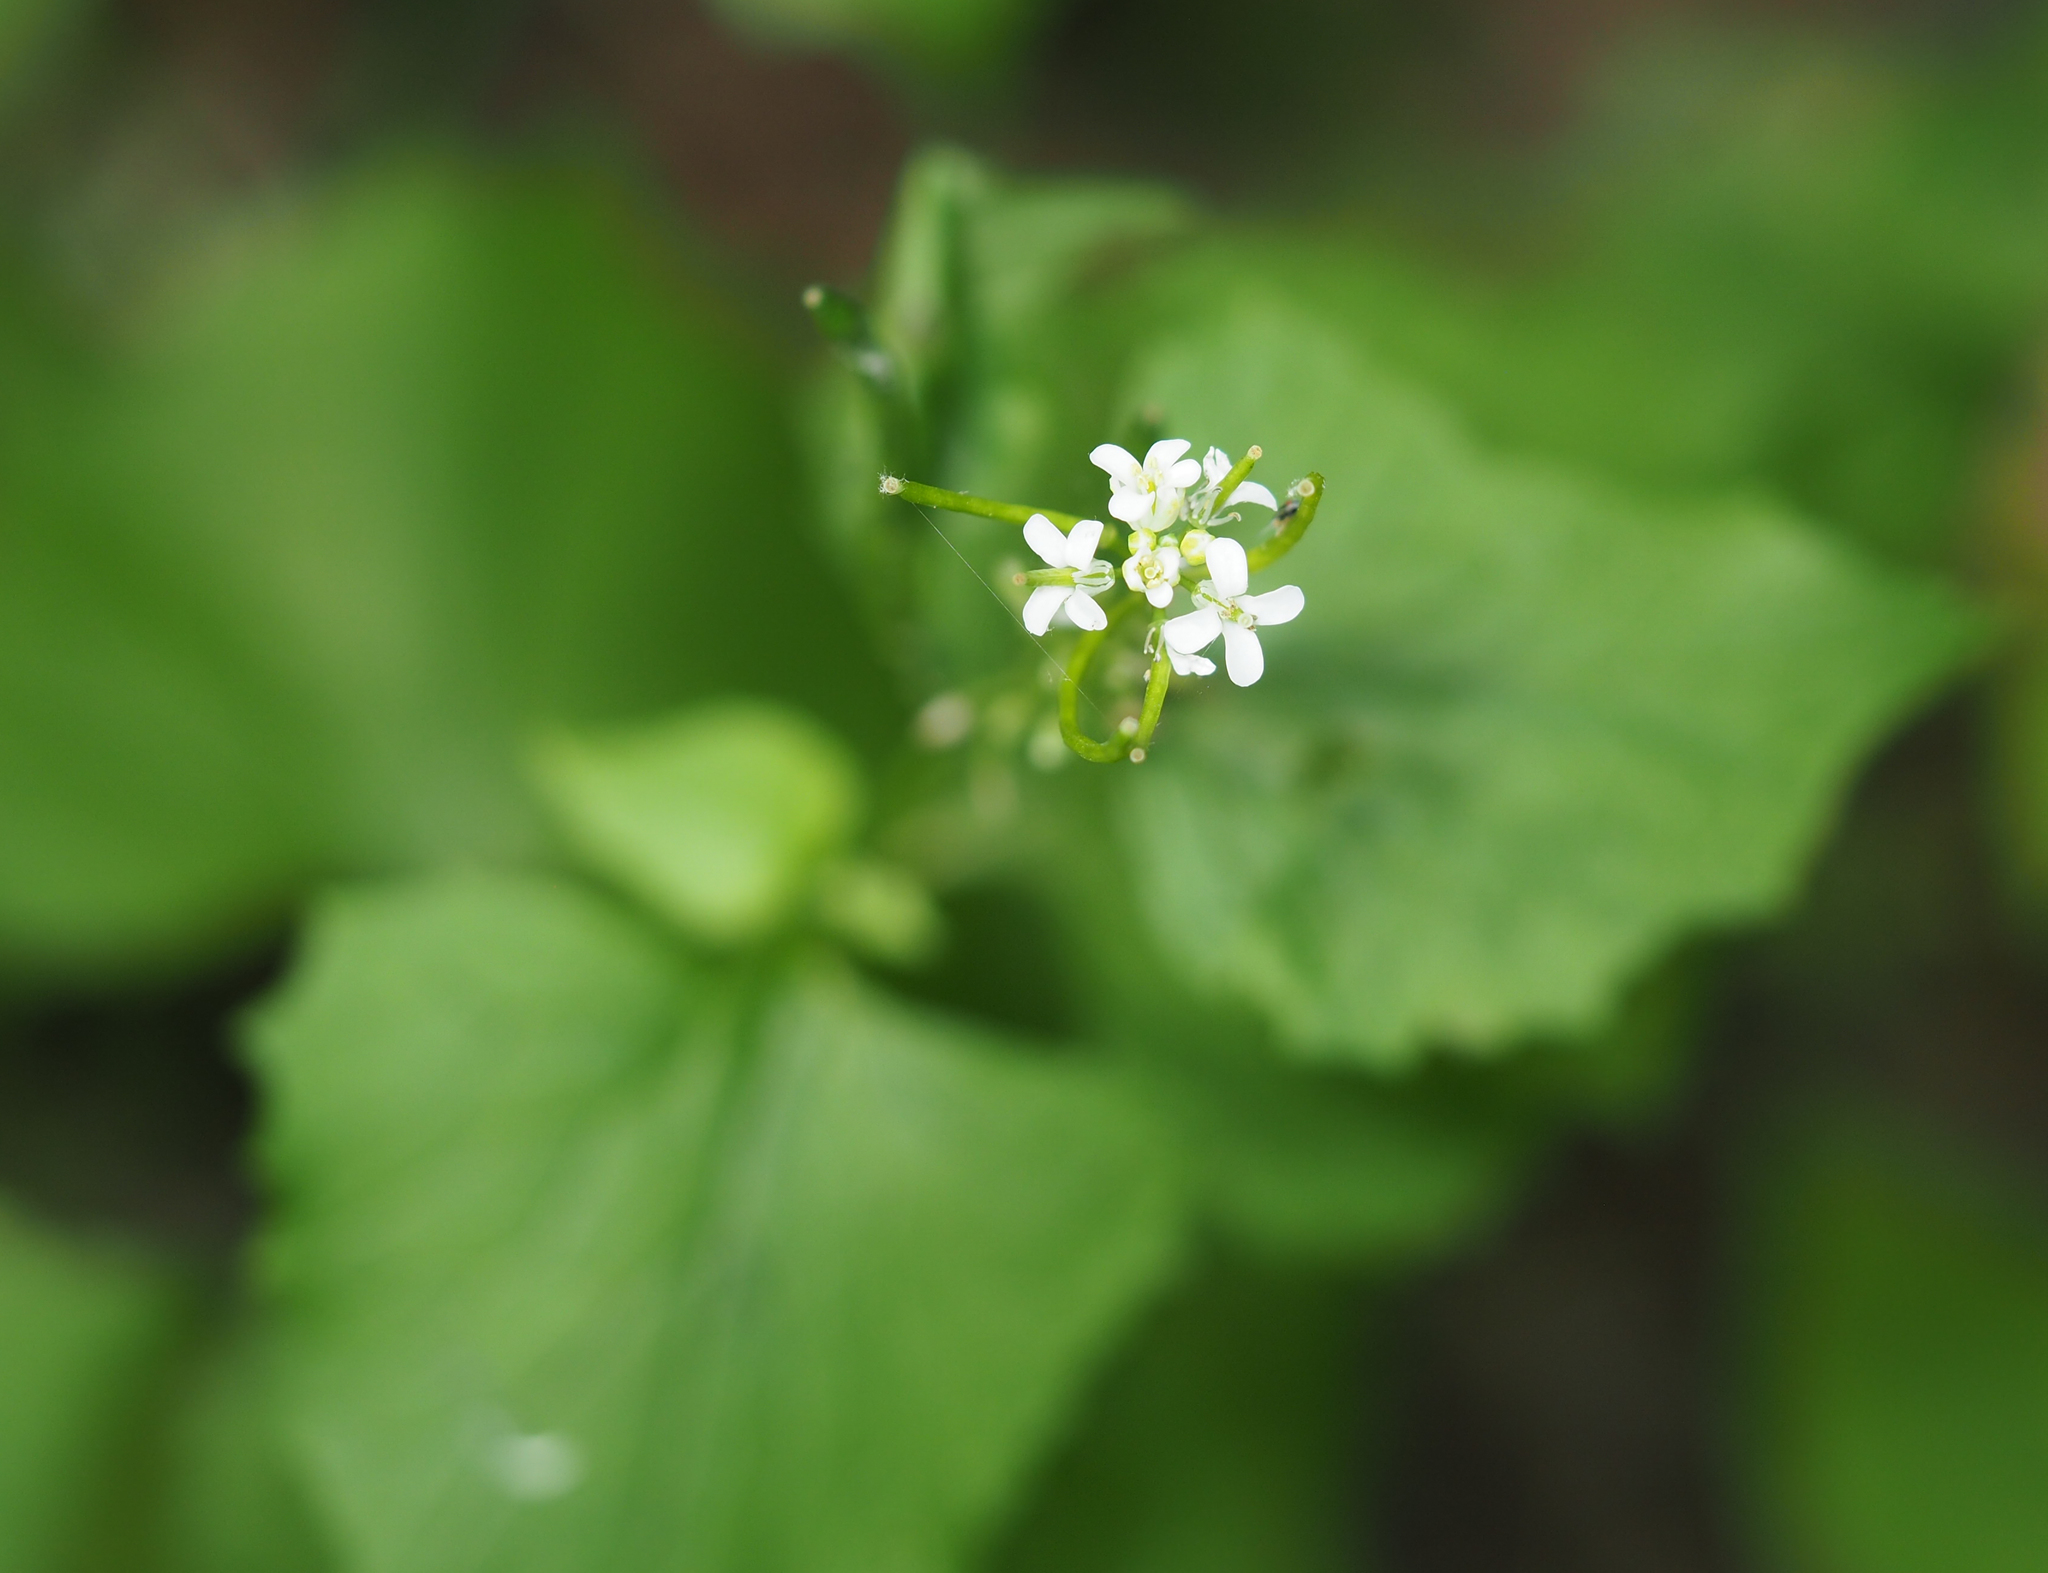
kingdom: Plantae
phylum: Tracheophyta
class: Magnoliopsida
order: Brassicales
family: Brassicaceae
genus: Alliaria
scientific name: Alliaria petiolata
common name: Garlic mustard
